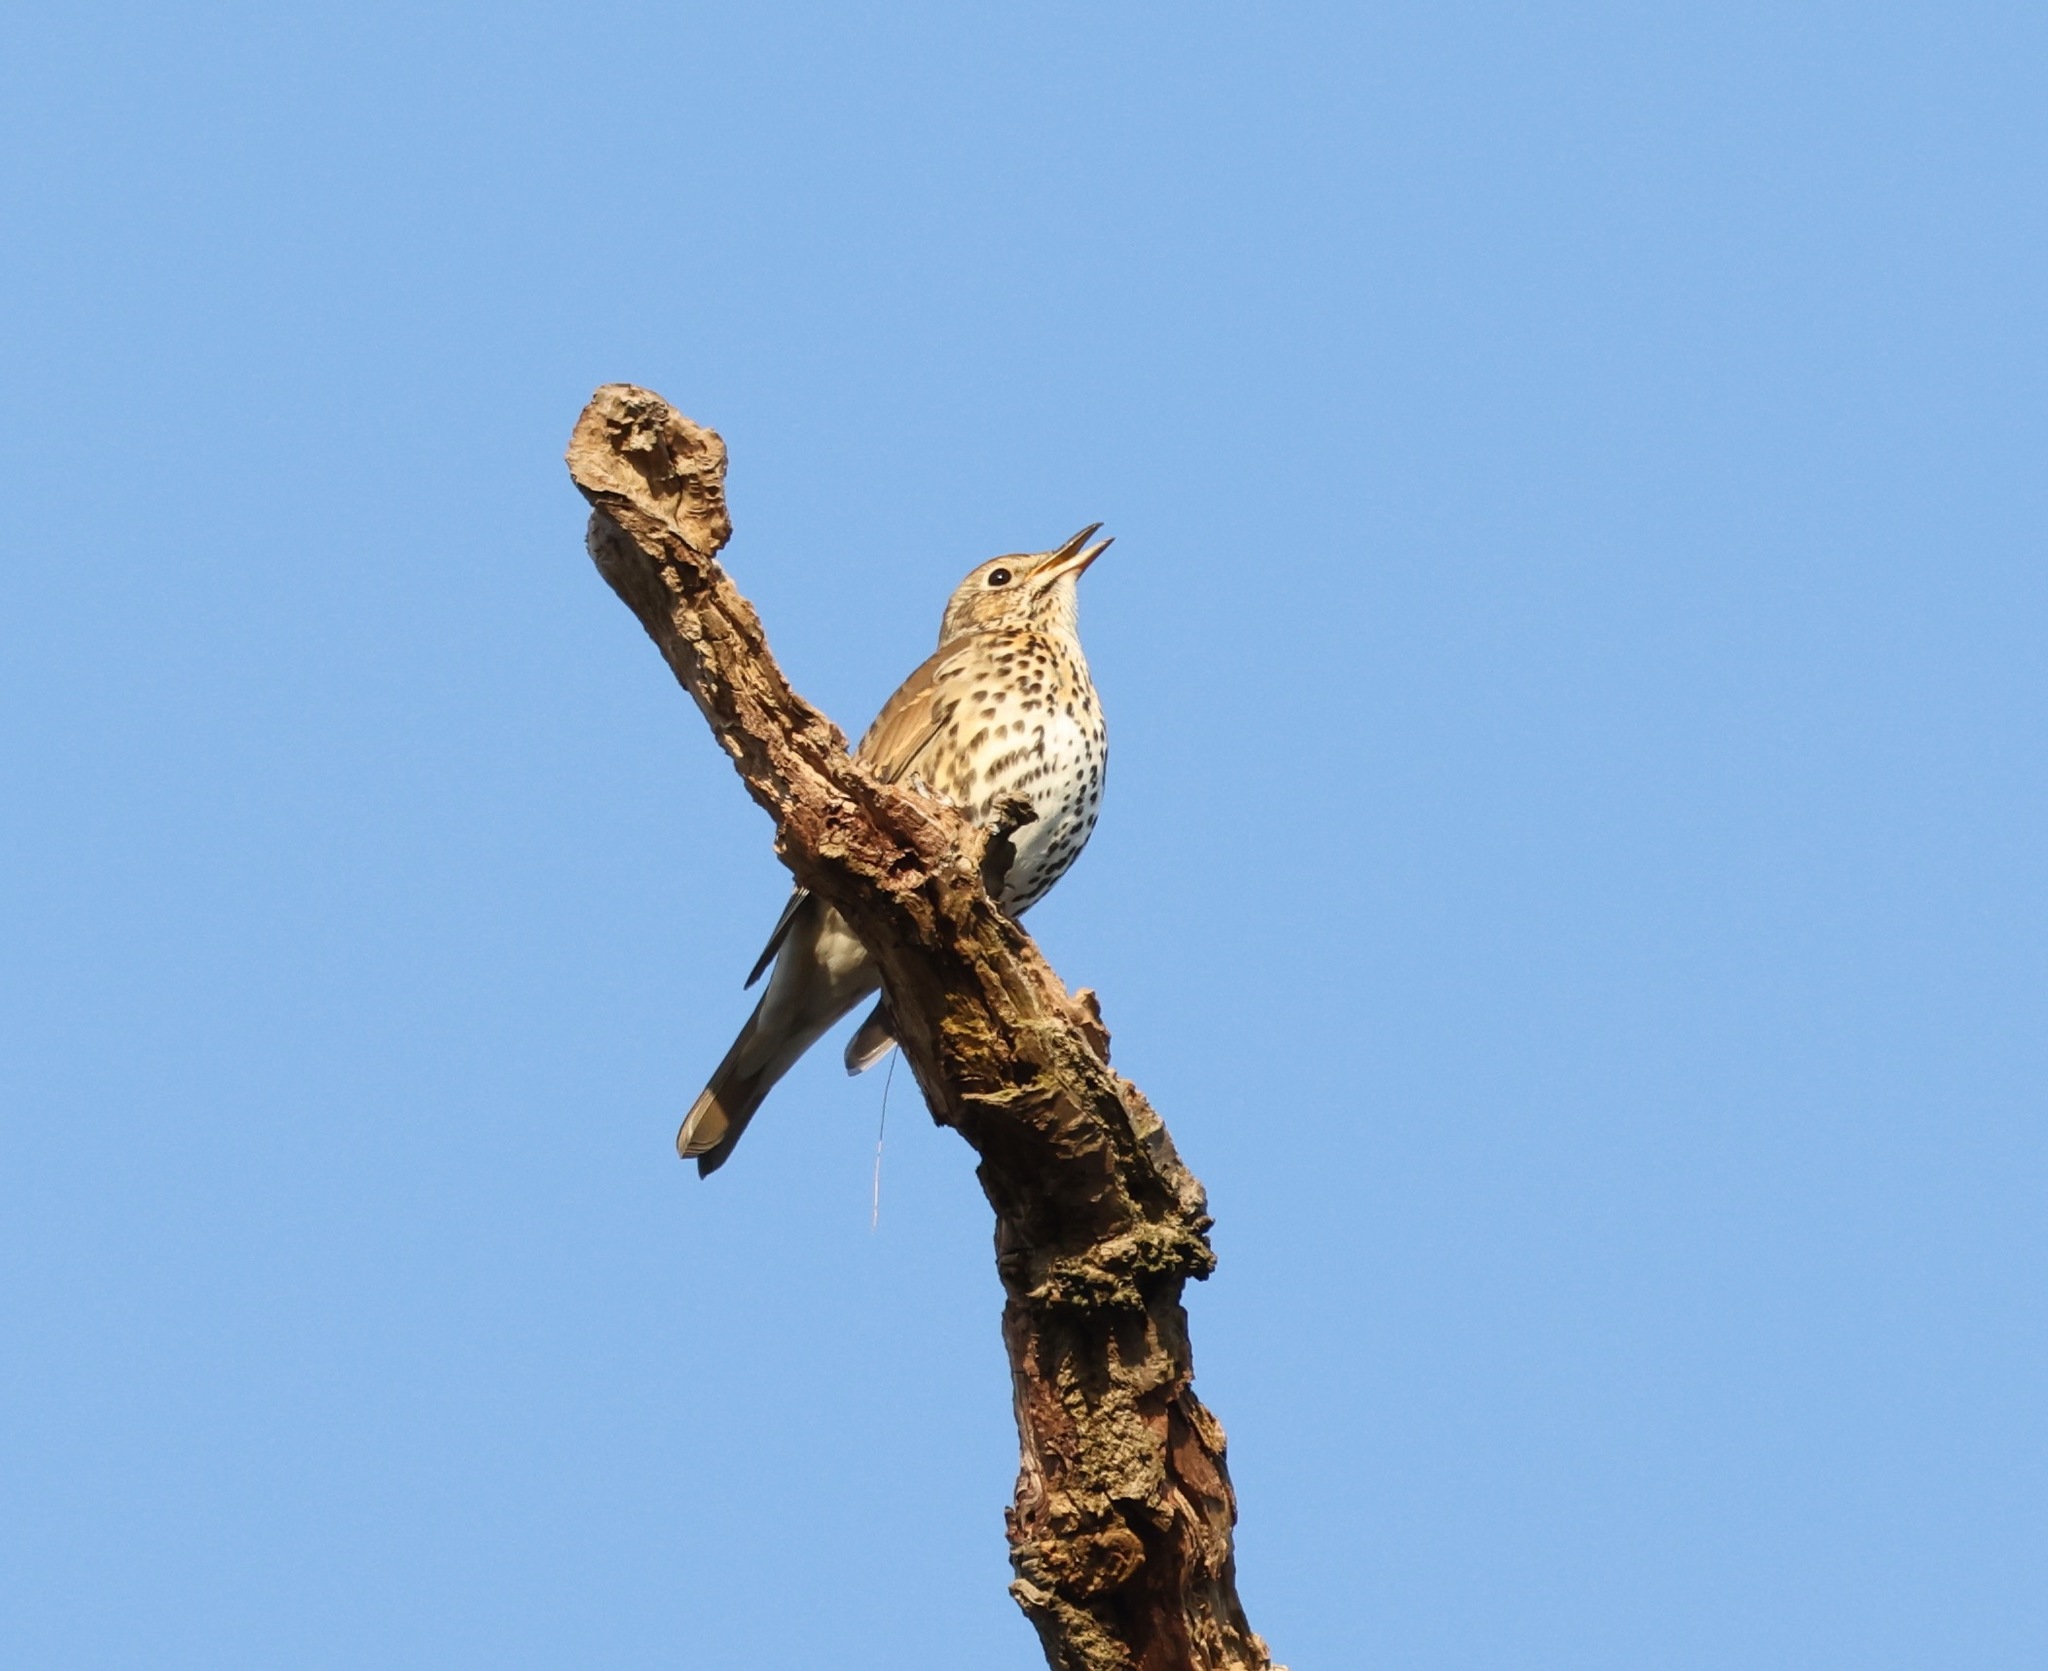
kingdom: Animalia
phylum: Chordata
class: Aves
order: Passeriformes
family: Turdidae
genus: Turdus
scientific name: Turdus philomelos
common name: Song thrush
